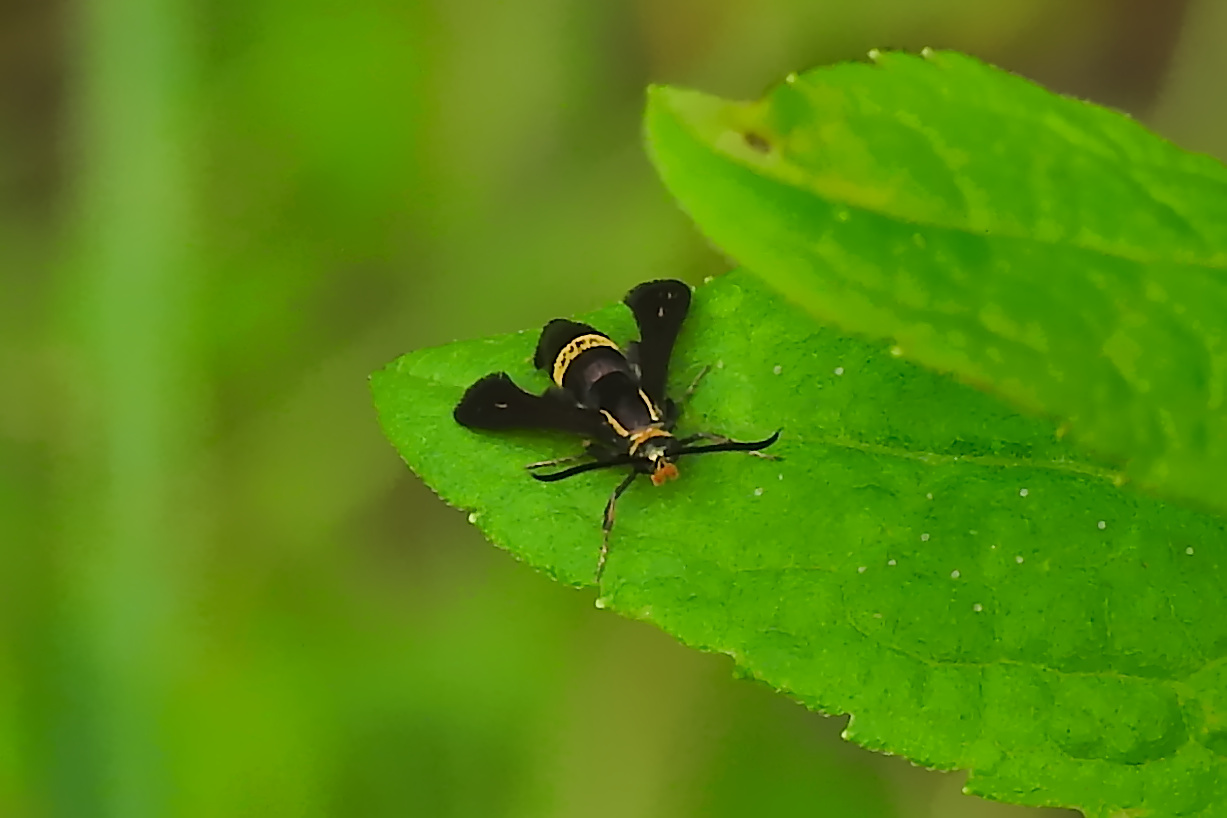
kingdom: Animalia
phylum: Arthropoda
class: Insecta
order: Lepidoptera
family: Sesiidae
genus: Carmenta
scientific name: Carmenta pyralidiformis
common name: Boneset borer moth
